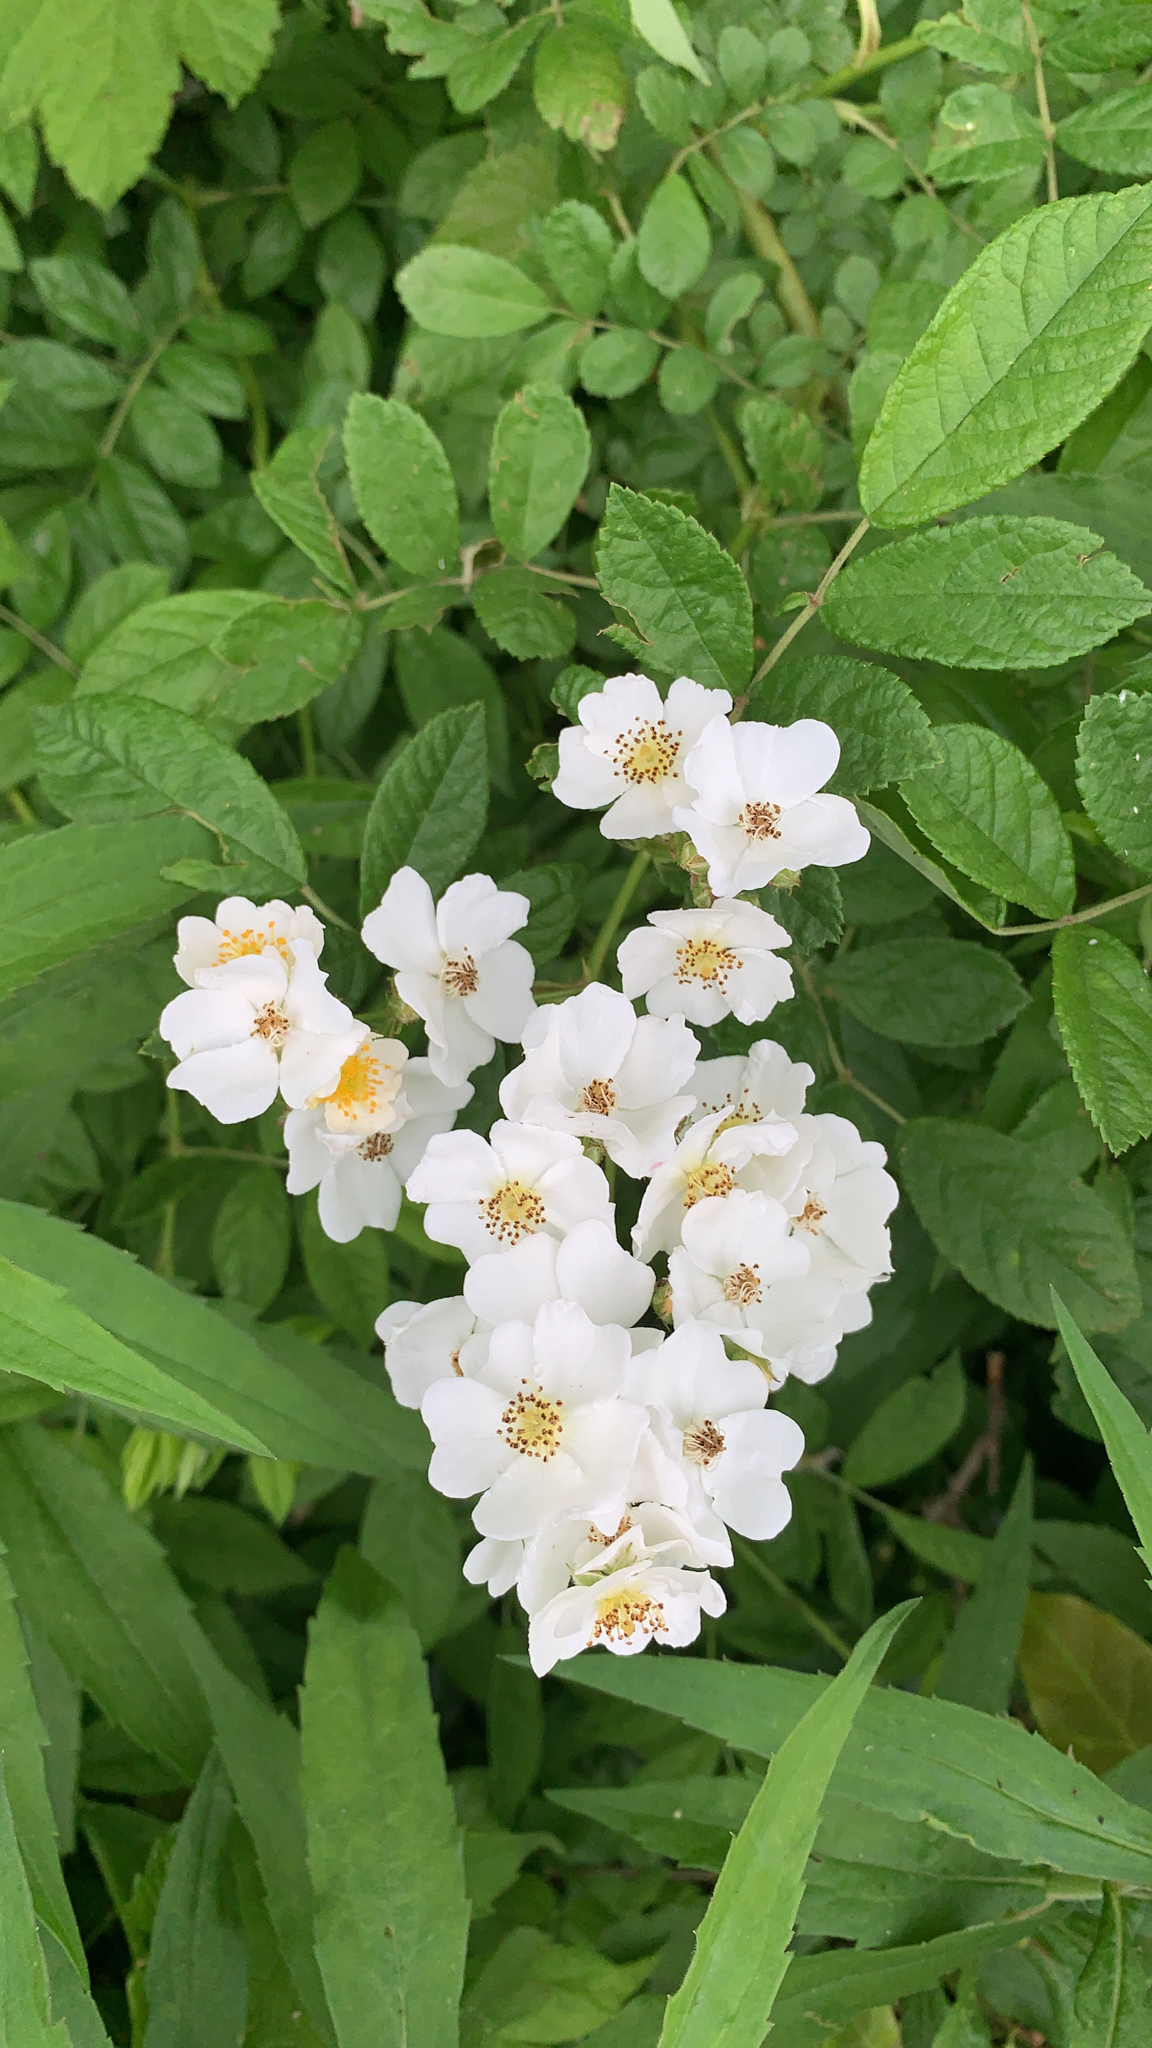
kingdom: Plantae
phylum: Tracheophyta
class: Magnoliopsida
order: Rosales
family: Rosaceae
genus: Rosa
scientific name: Rosa multiflora
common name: Multiflora rose
